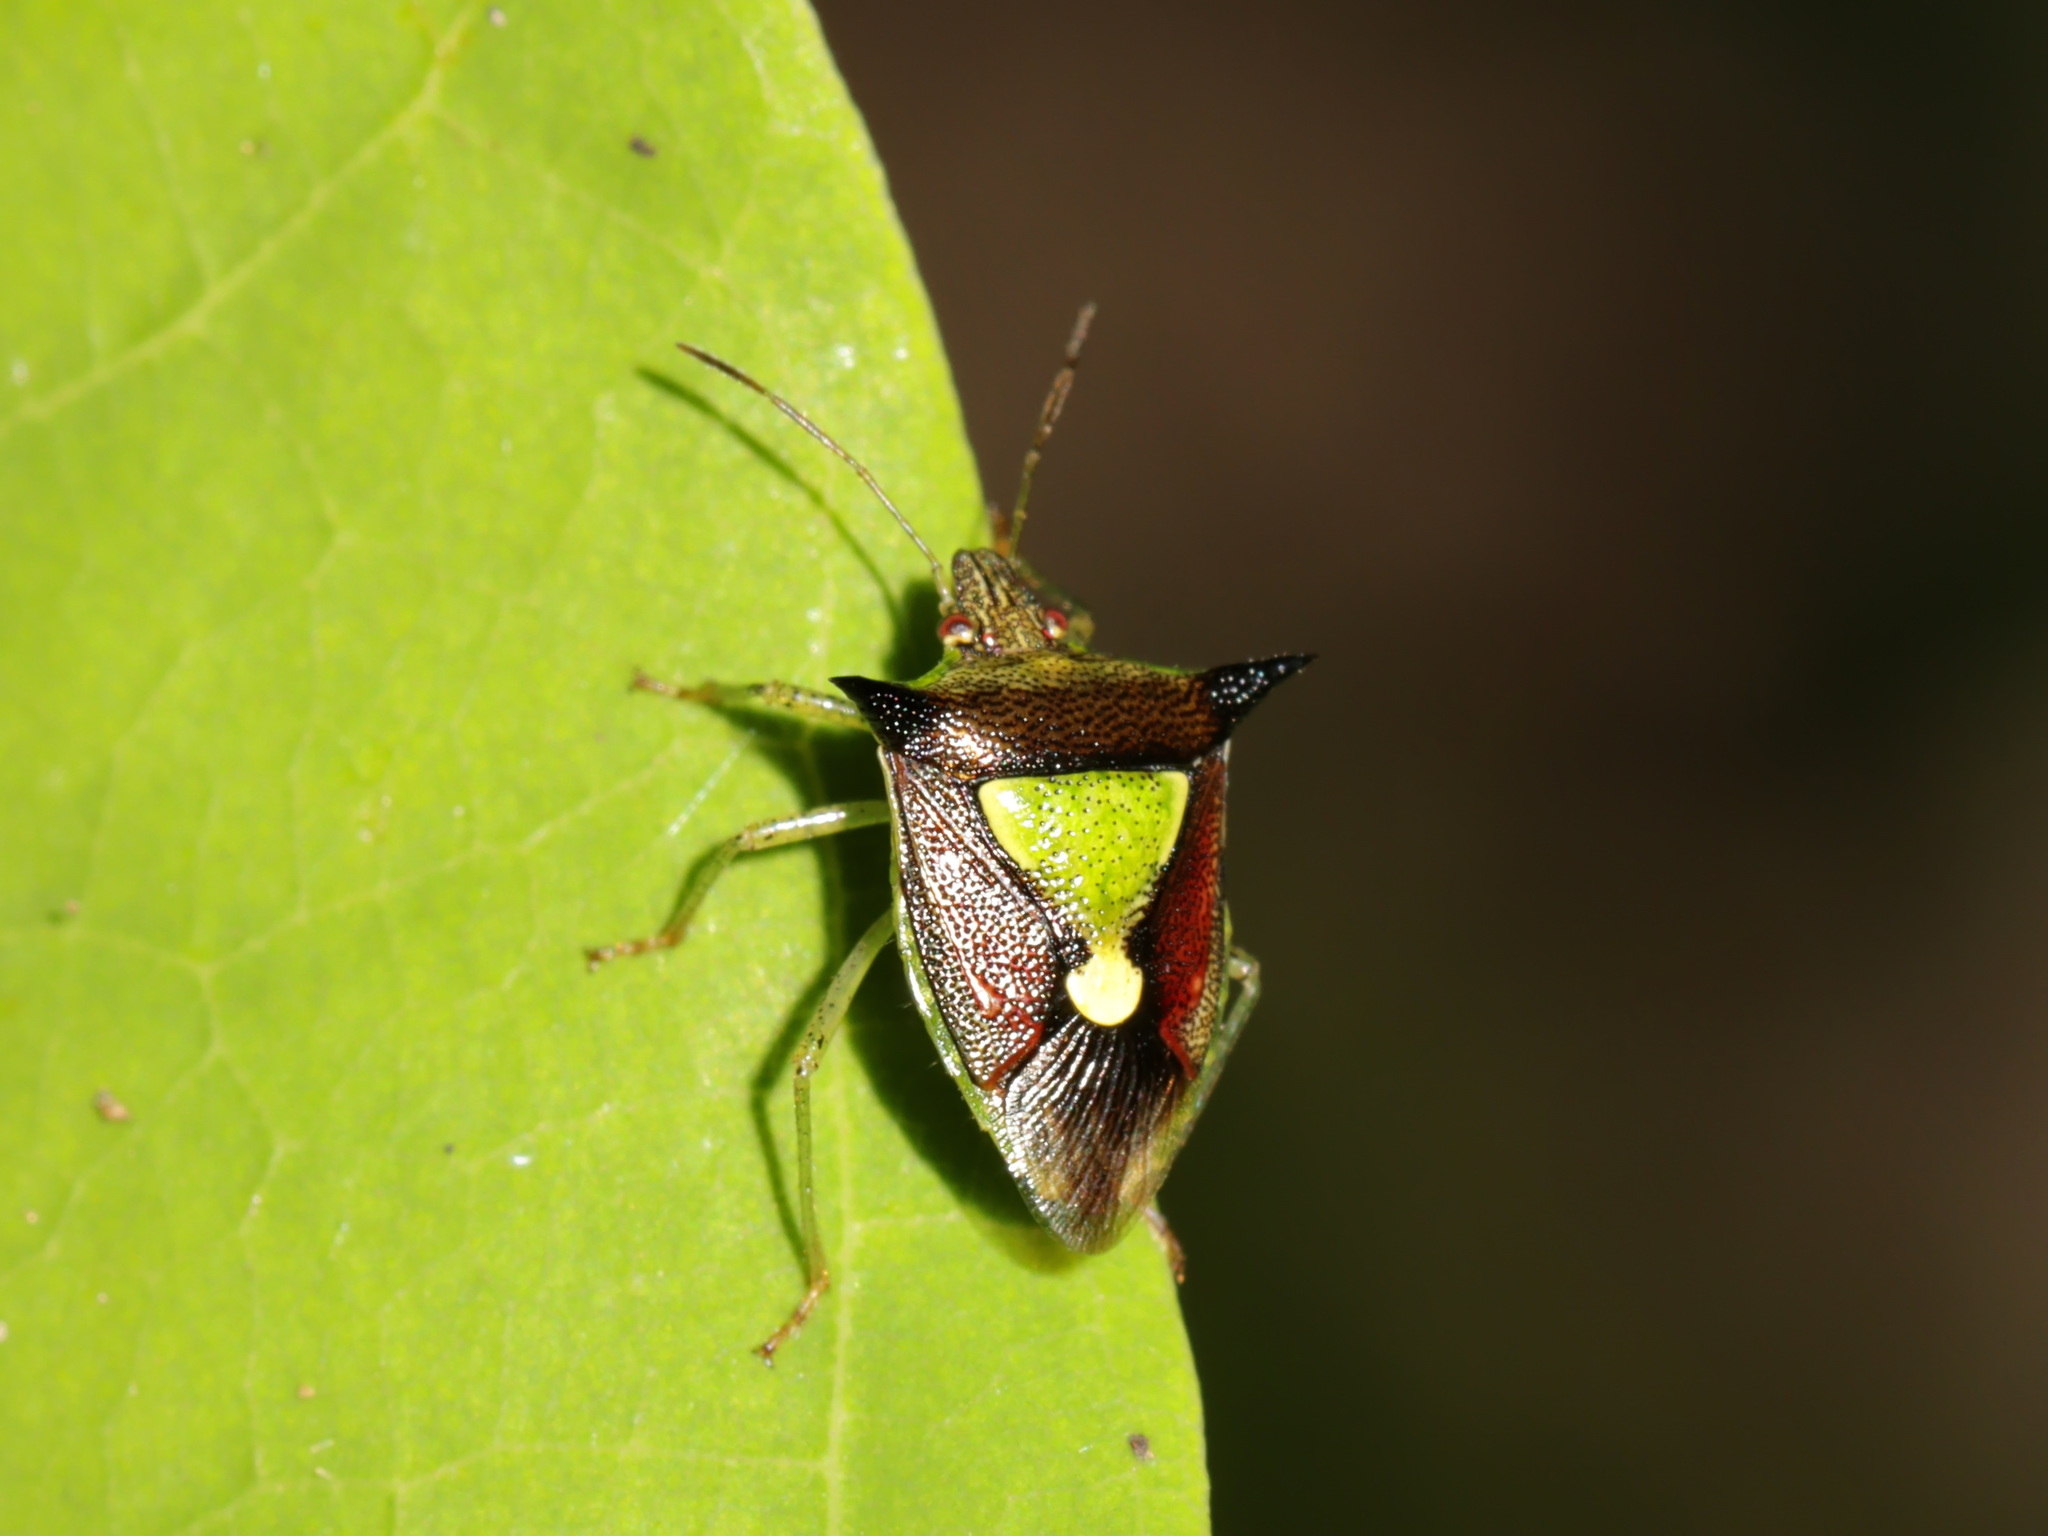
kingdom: Animalia
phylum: Arthropoda
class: Insecta
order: Hemiptera
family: Pentatomidae
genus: Carbula
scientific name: Carbula scutellata
